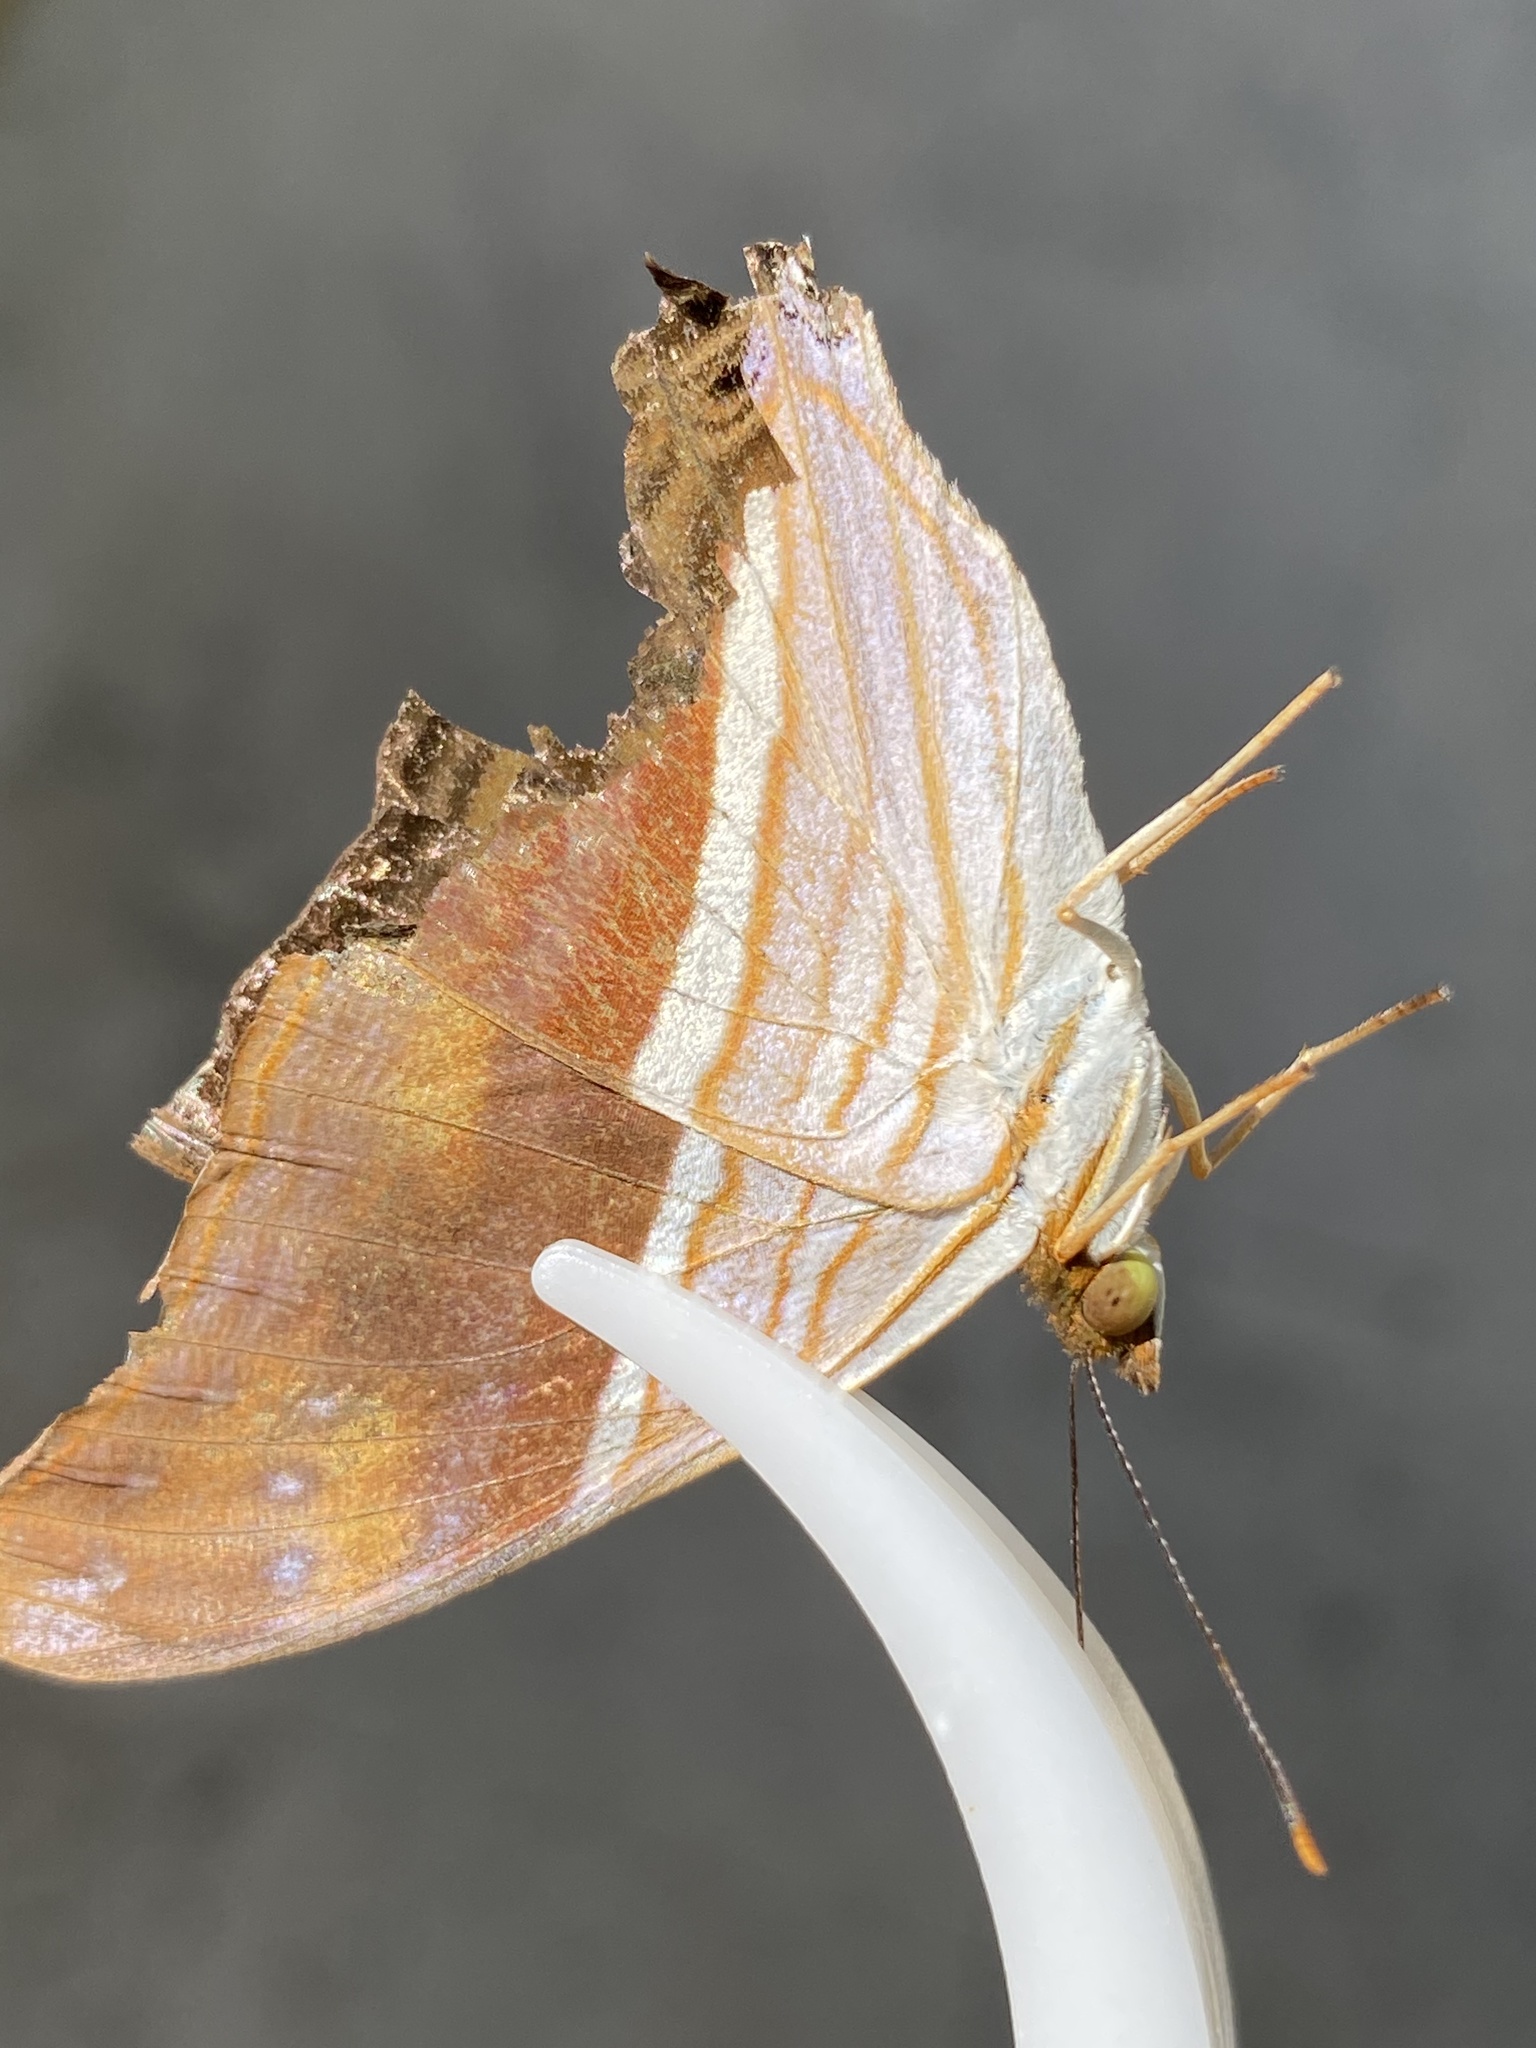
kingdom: Animalia
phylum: Arthropoda
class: Insecta
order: Lepidoptera
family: Nymphalidae
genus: Marpesia
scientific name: Marpesia chiron
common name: Many-banded daggerwing
